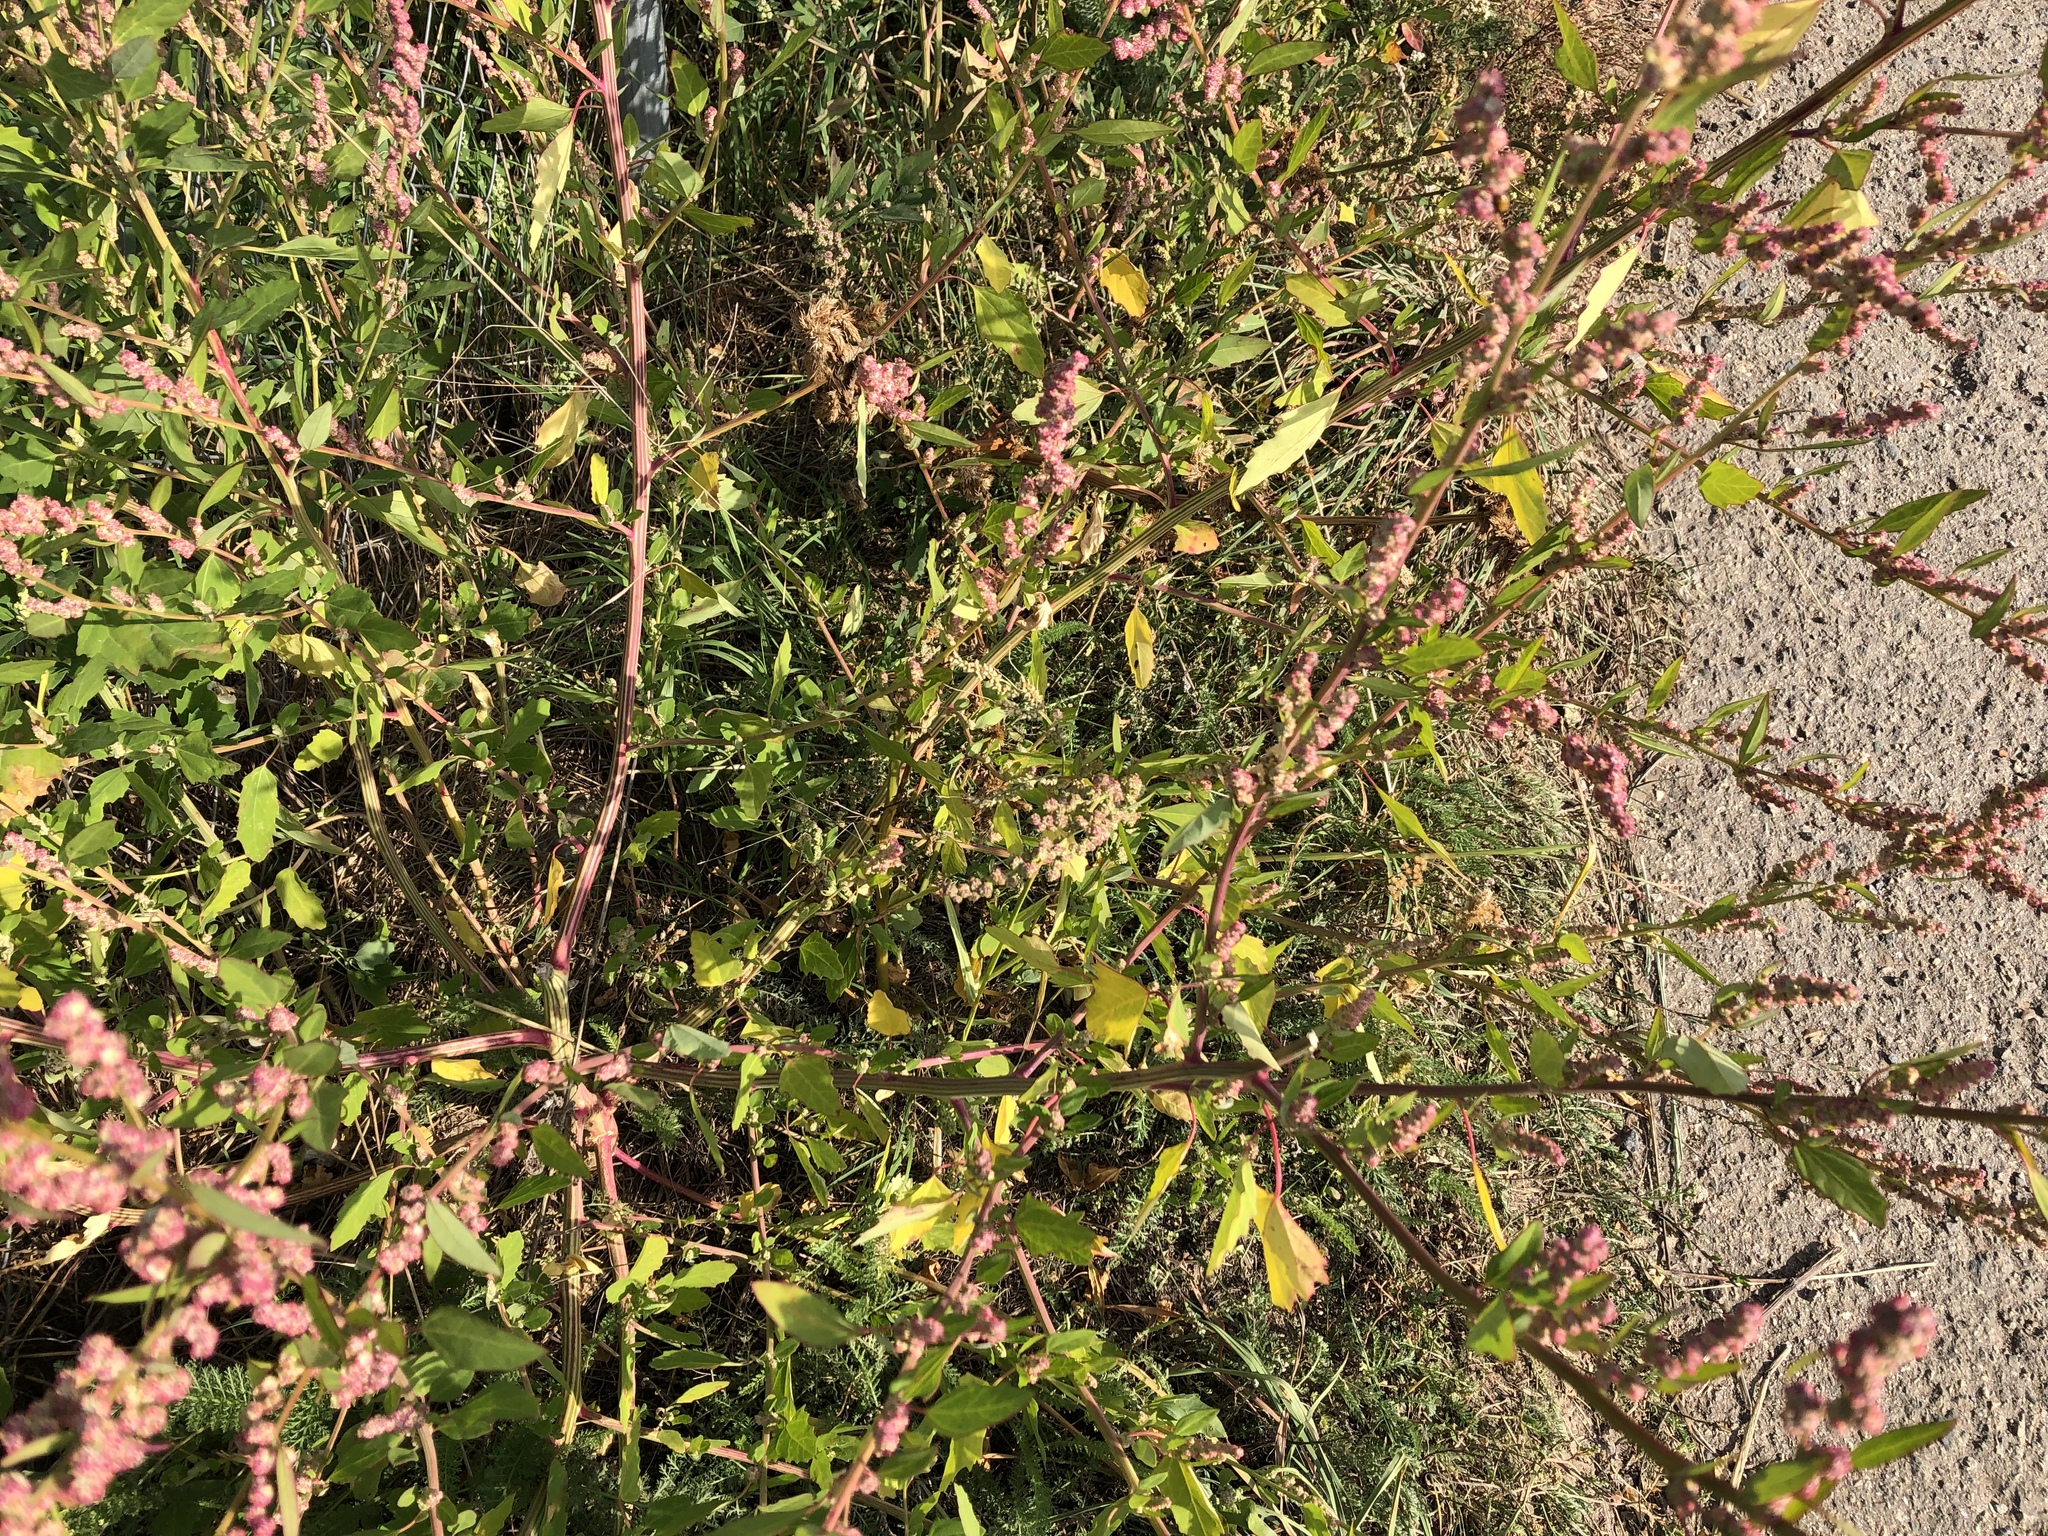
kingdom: Plantae
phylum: Tracheophyta
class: Magnoliopsida
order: Caryophyllales
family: Amaranthaceae
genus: Chenopodium
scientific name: Chenopodium album
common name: Fat-hen
